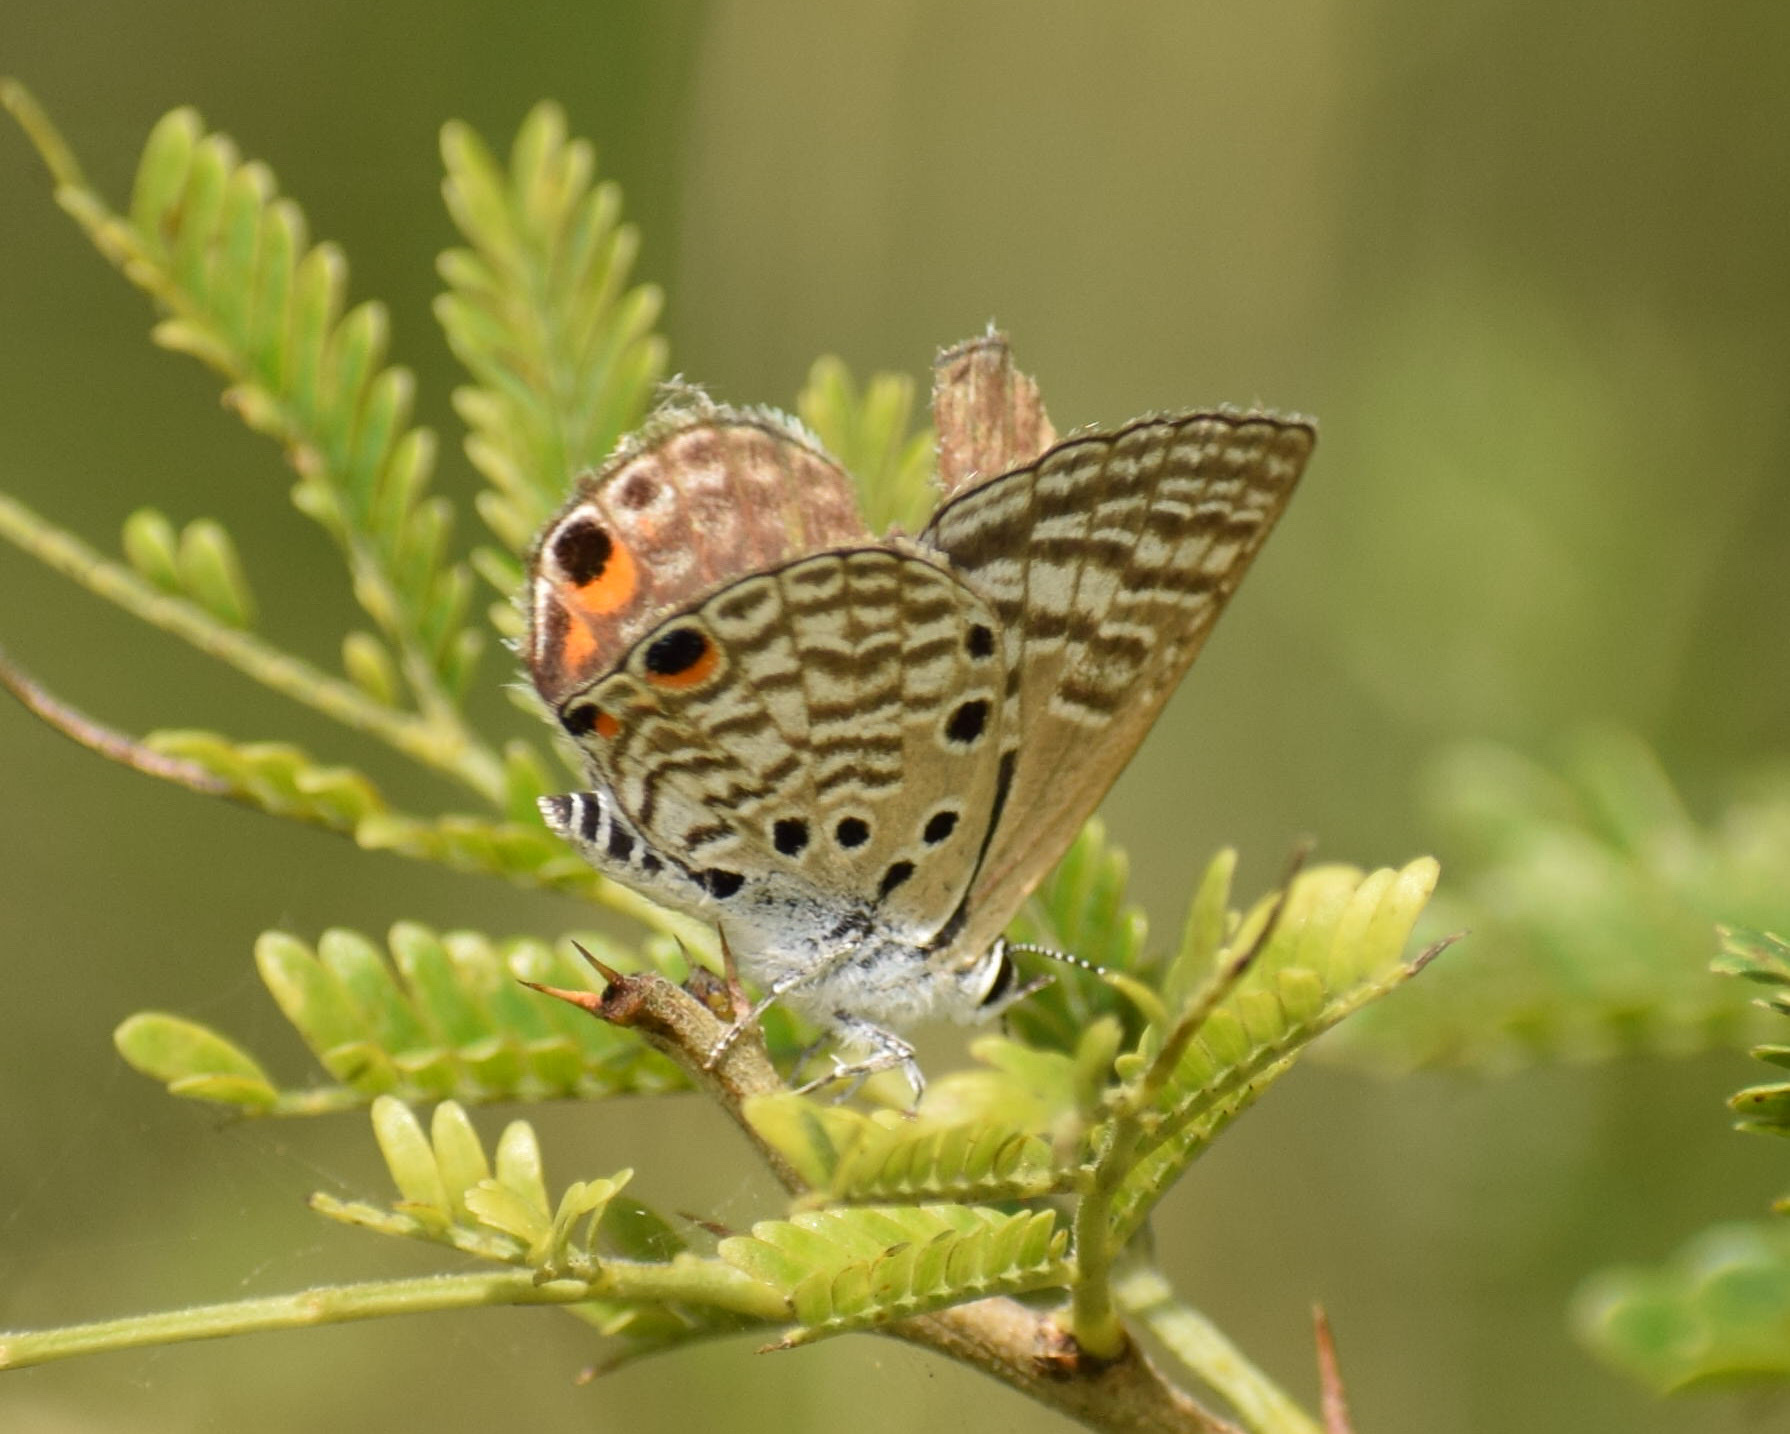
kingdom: Animalia
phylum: Arthropoda
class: Insecta
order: Lepidoptera
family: Lycaenidae
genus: Anthene
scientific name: Anthene amarah
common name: Black-striped hairtail
